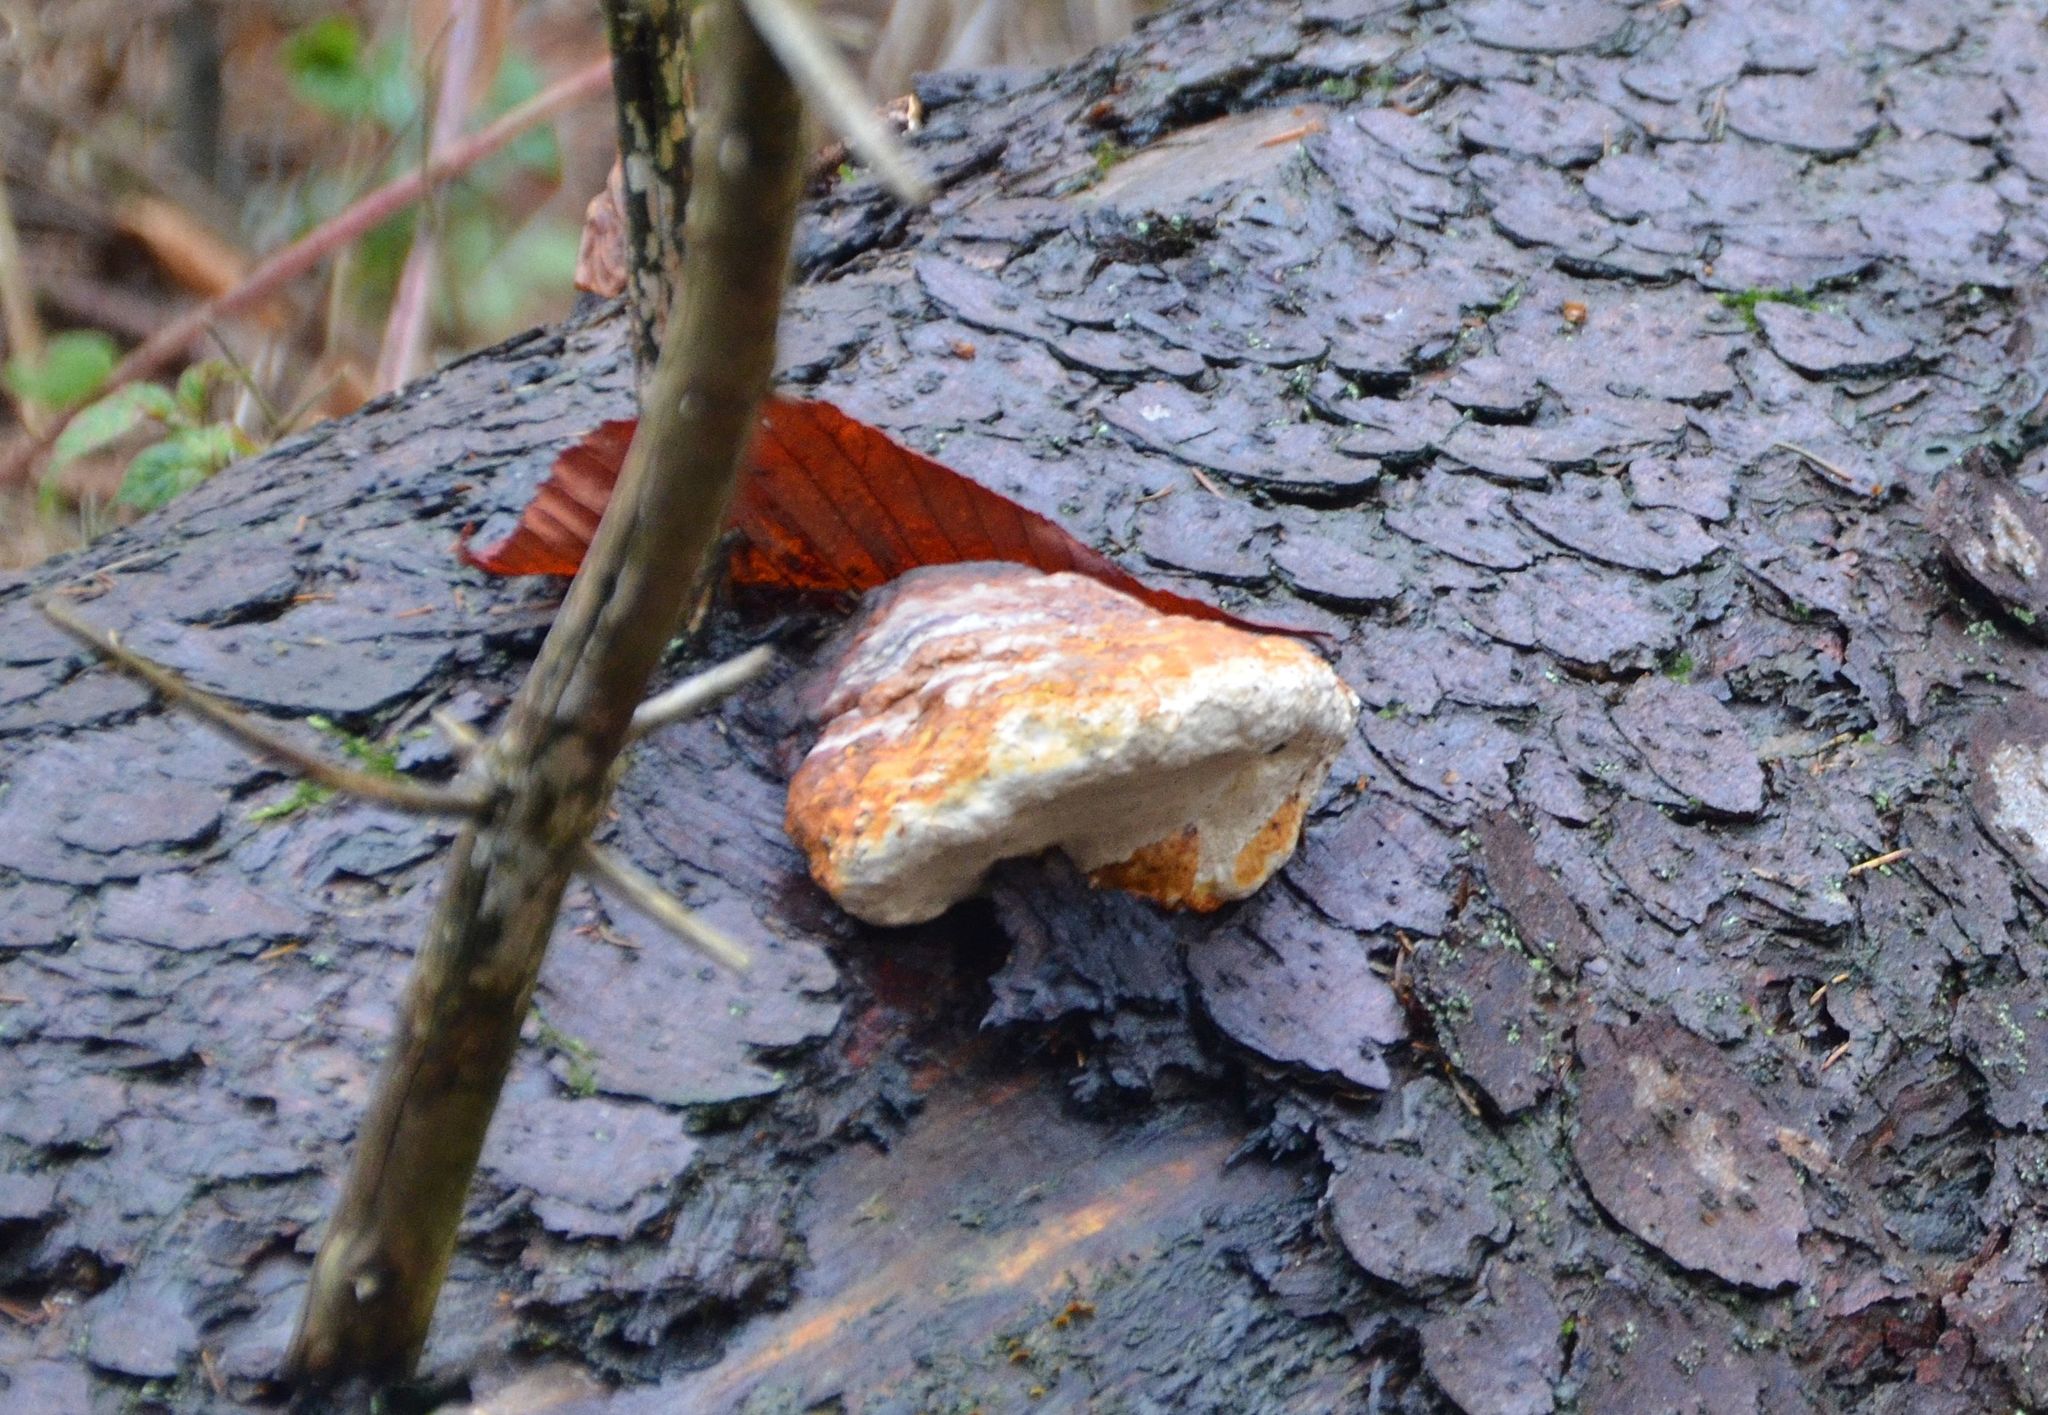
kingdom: Fungi
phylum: Basidiomycota
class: Agaricomycetes
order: Polyporales
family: Fomitopsidaceae
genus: Fomitopsis
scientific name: Fomitopsis pinicola
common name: Red-belted bracket
